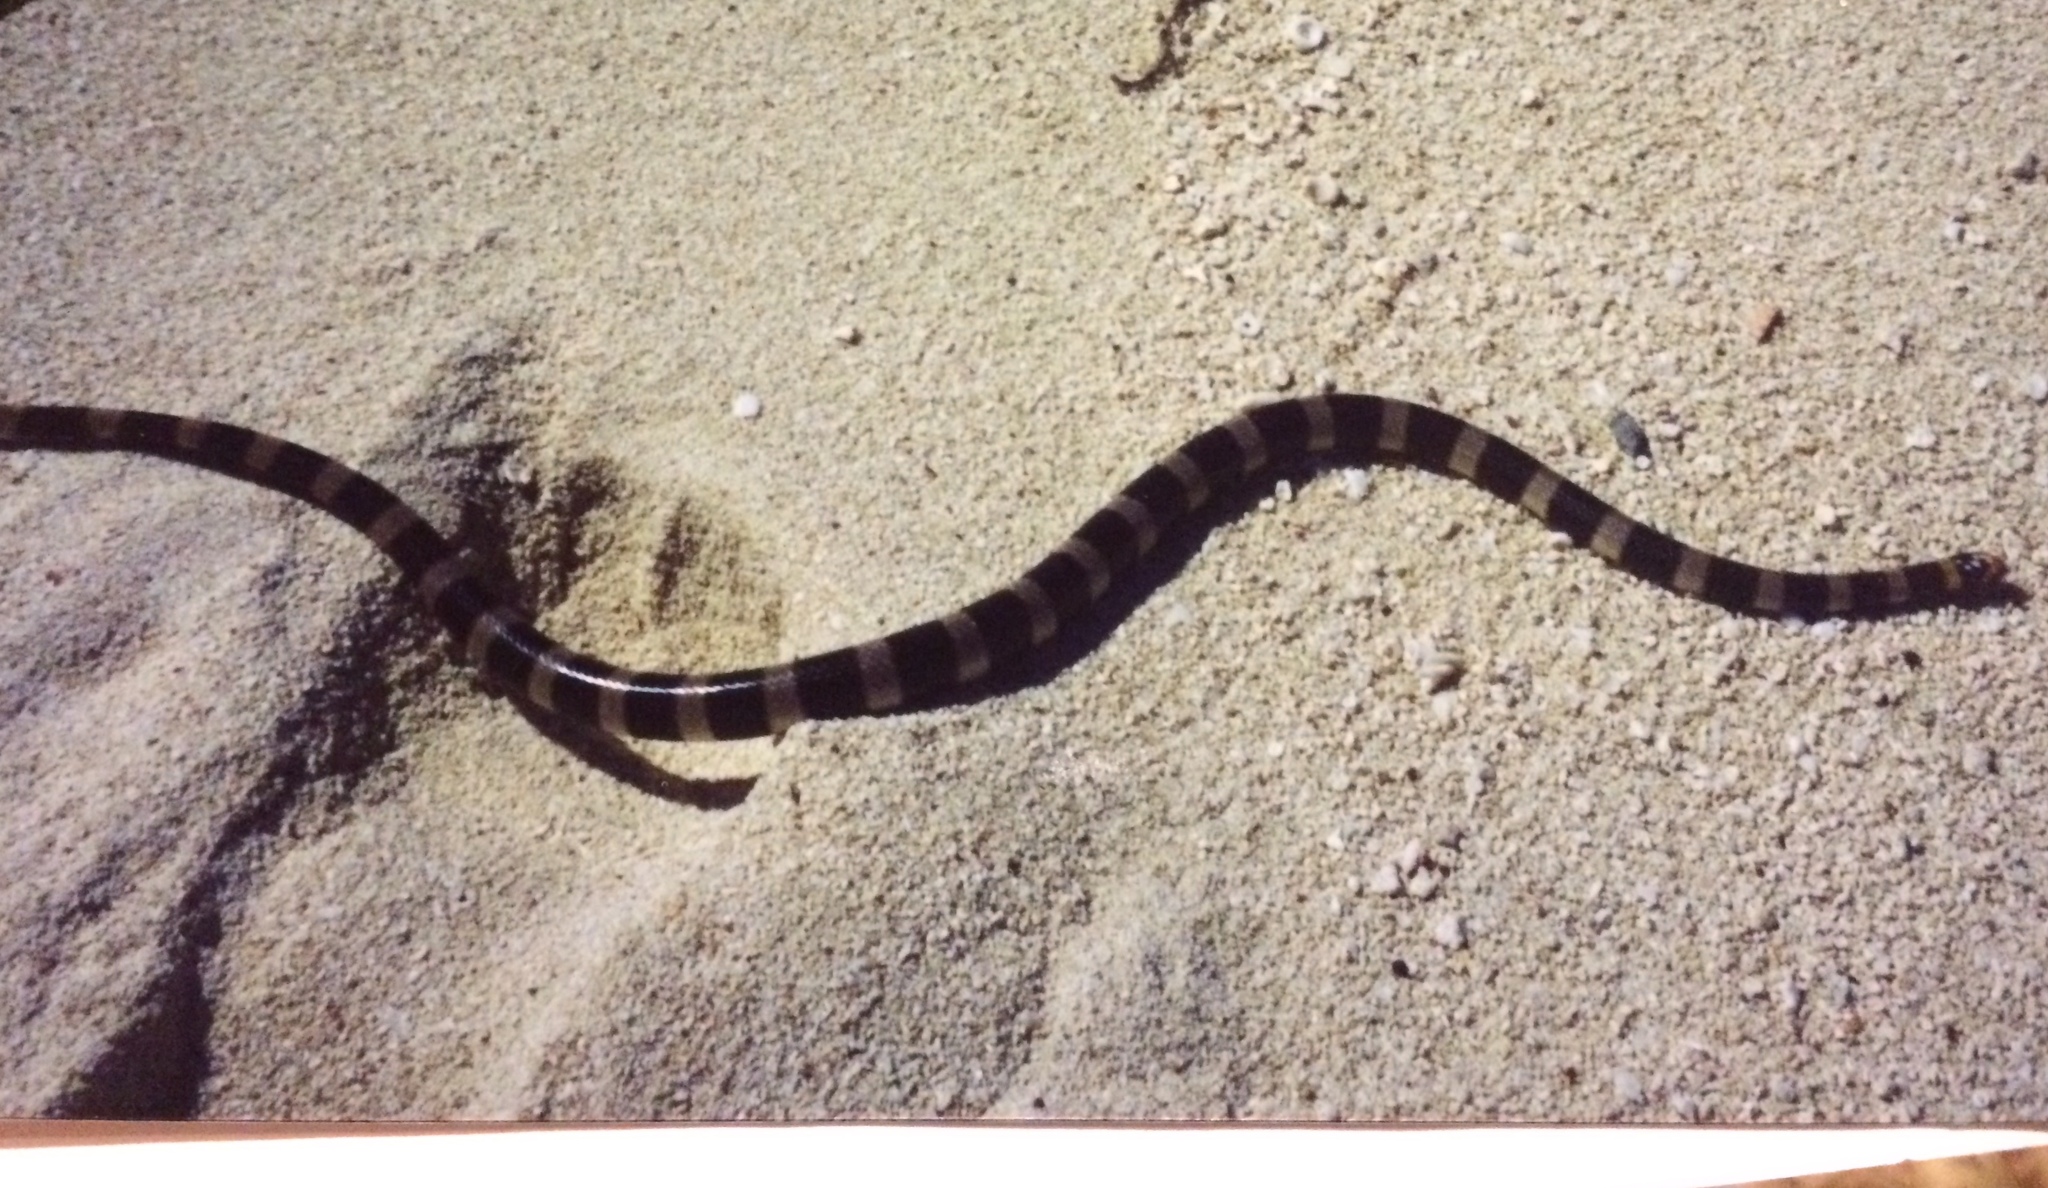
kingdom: Animalia
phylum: Chordata
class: Squamata
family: Elapidae
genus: Laticauda
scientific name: Laticauda saintgironsi
